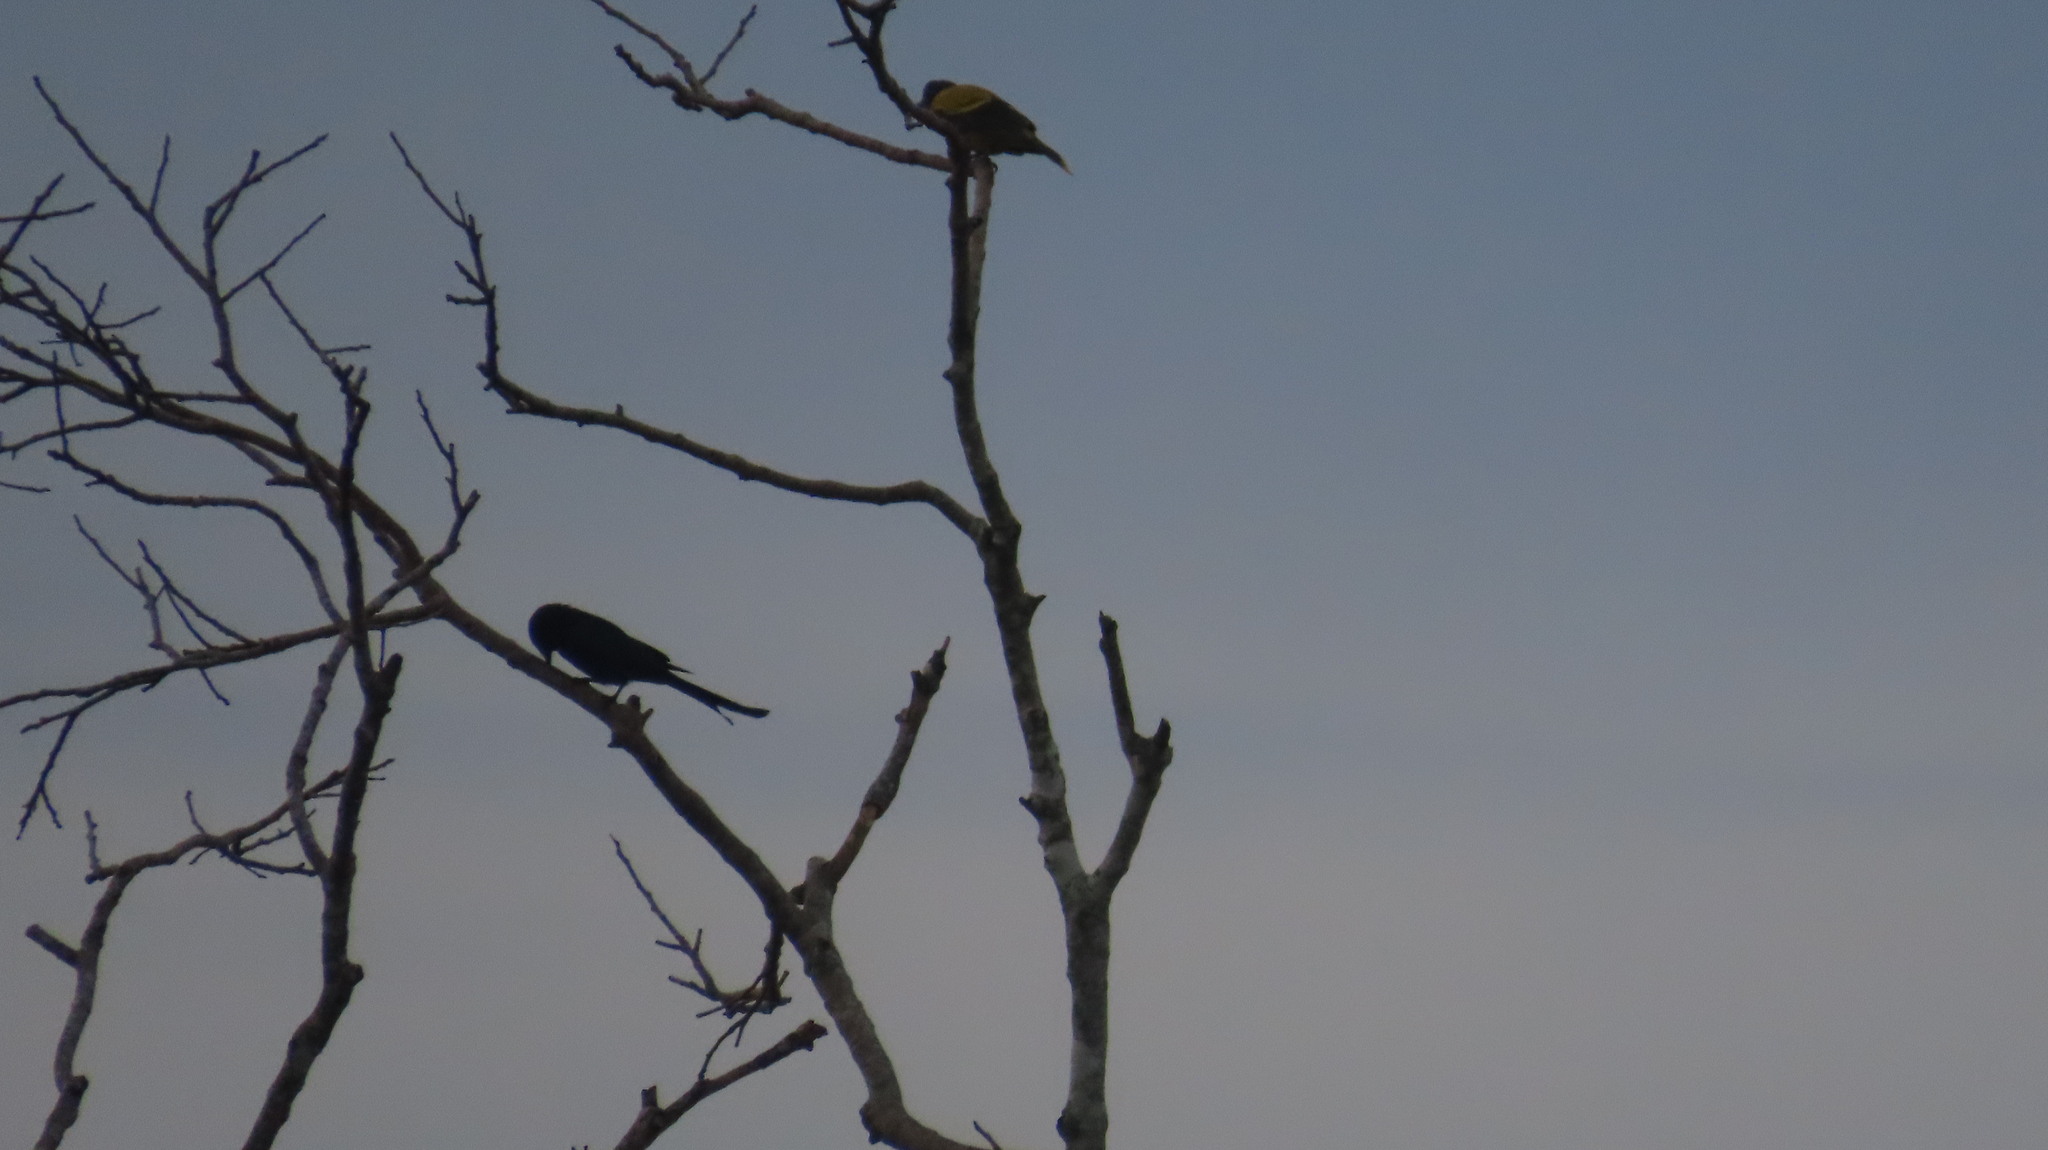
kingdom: Animalia
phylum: Chordata
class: Aves
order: Passeriformes
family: Oriolidae
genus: Oriolus
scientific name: Oriolus xanthornus
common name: Black-hooded oriole
